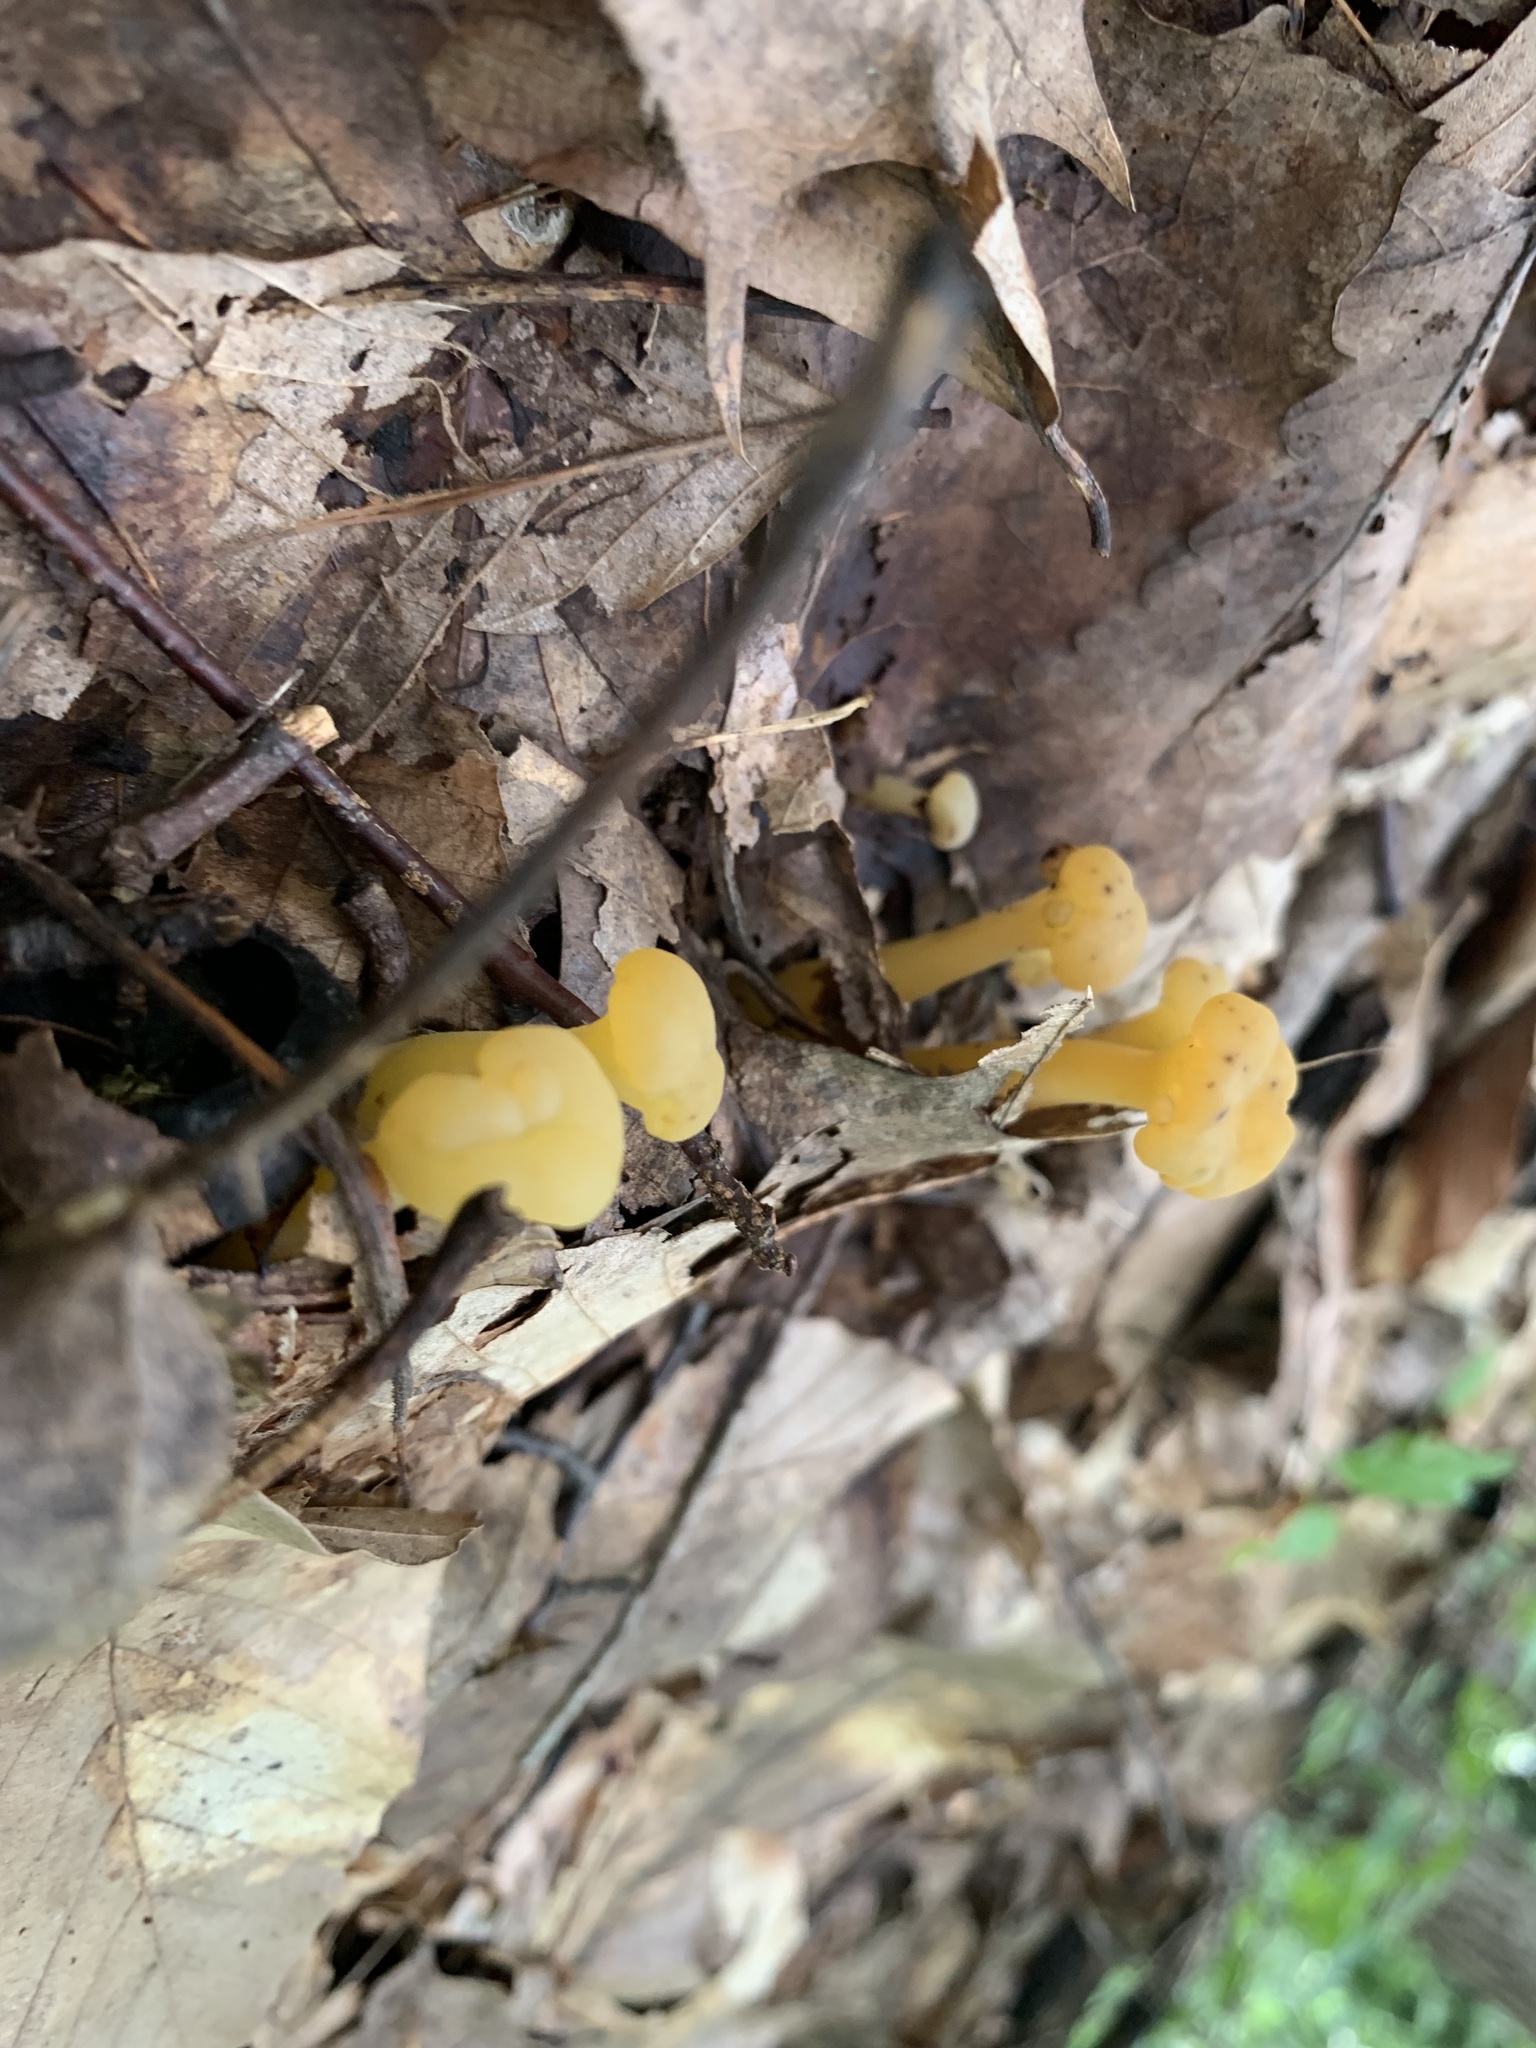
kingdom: Fungi
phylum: Ascomycota
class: Leotiomycetes
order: Leotiales
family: Leotiaceae
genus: Leotia
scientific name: Leotia lubrica
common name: Jellybaby
